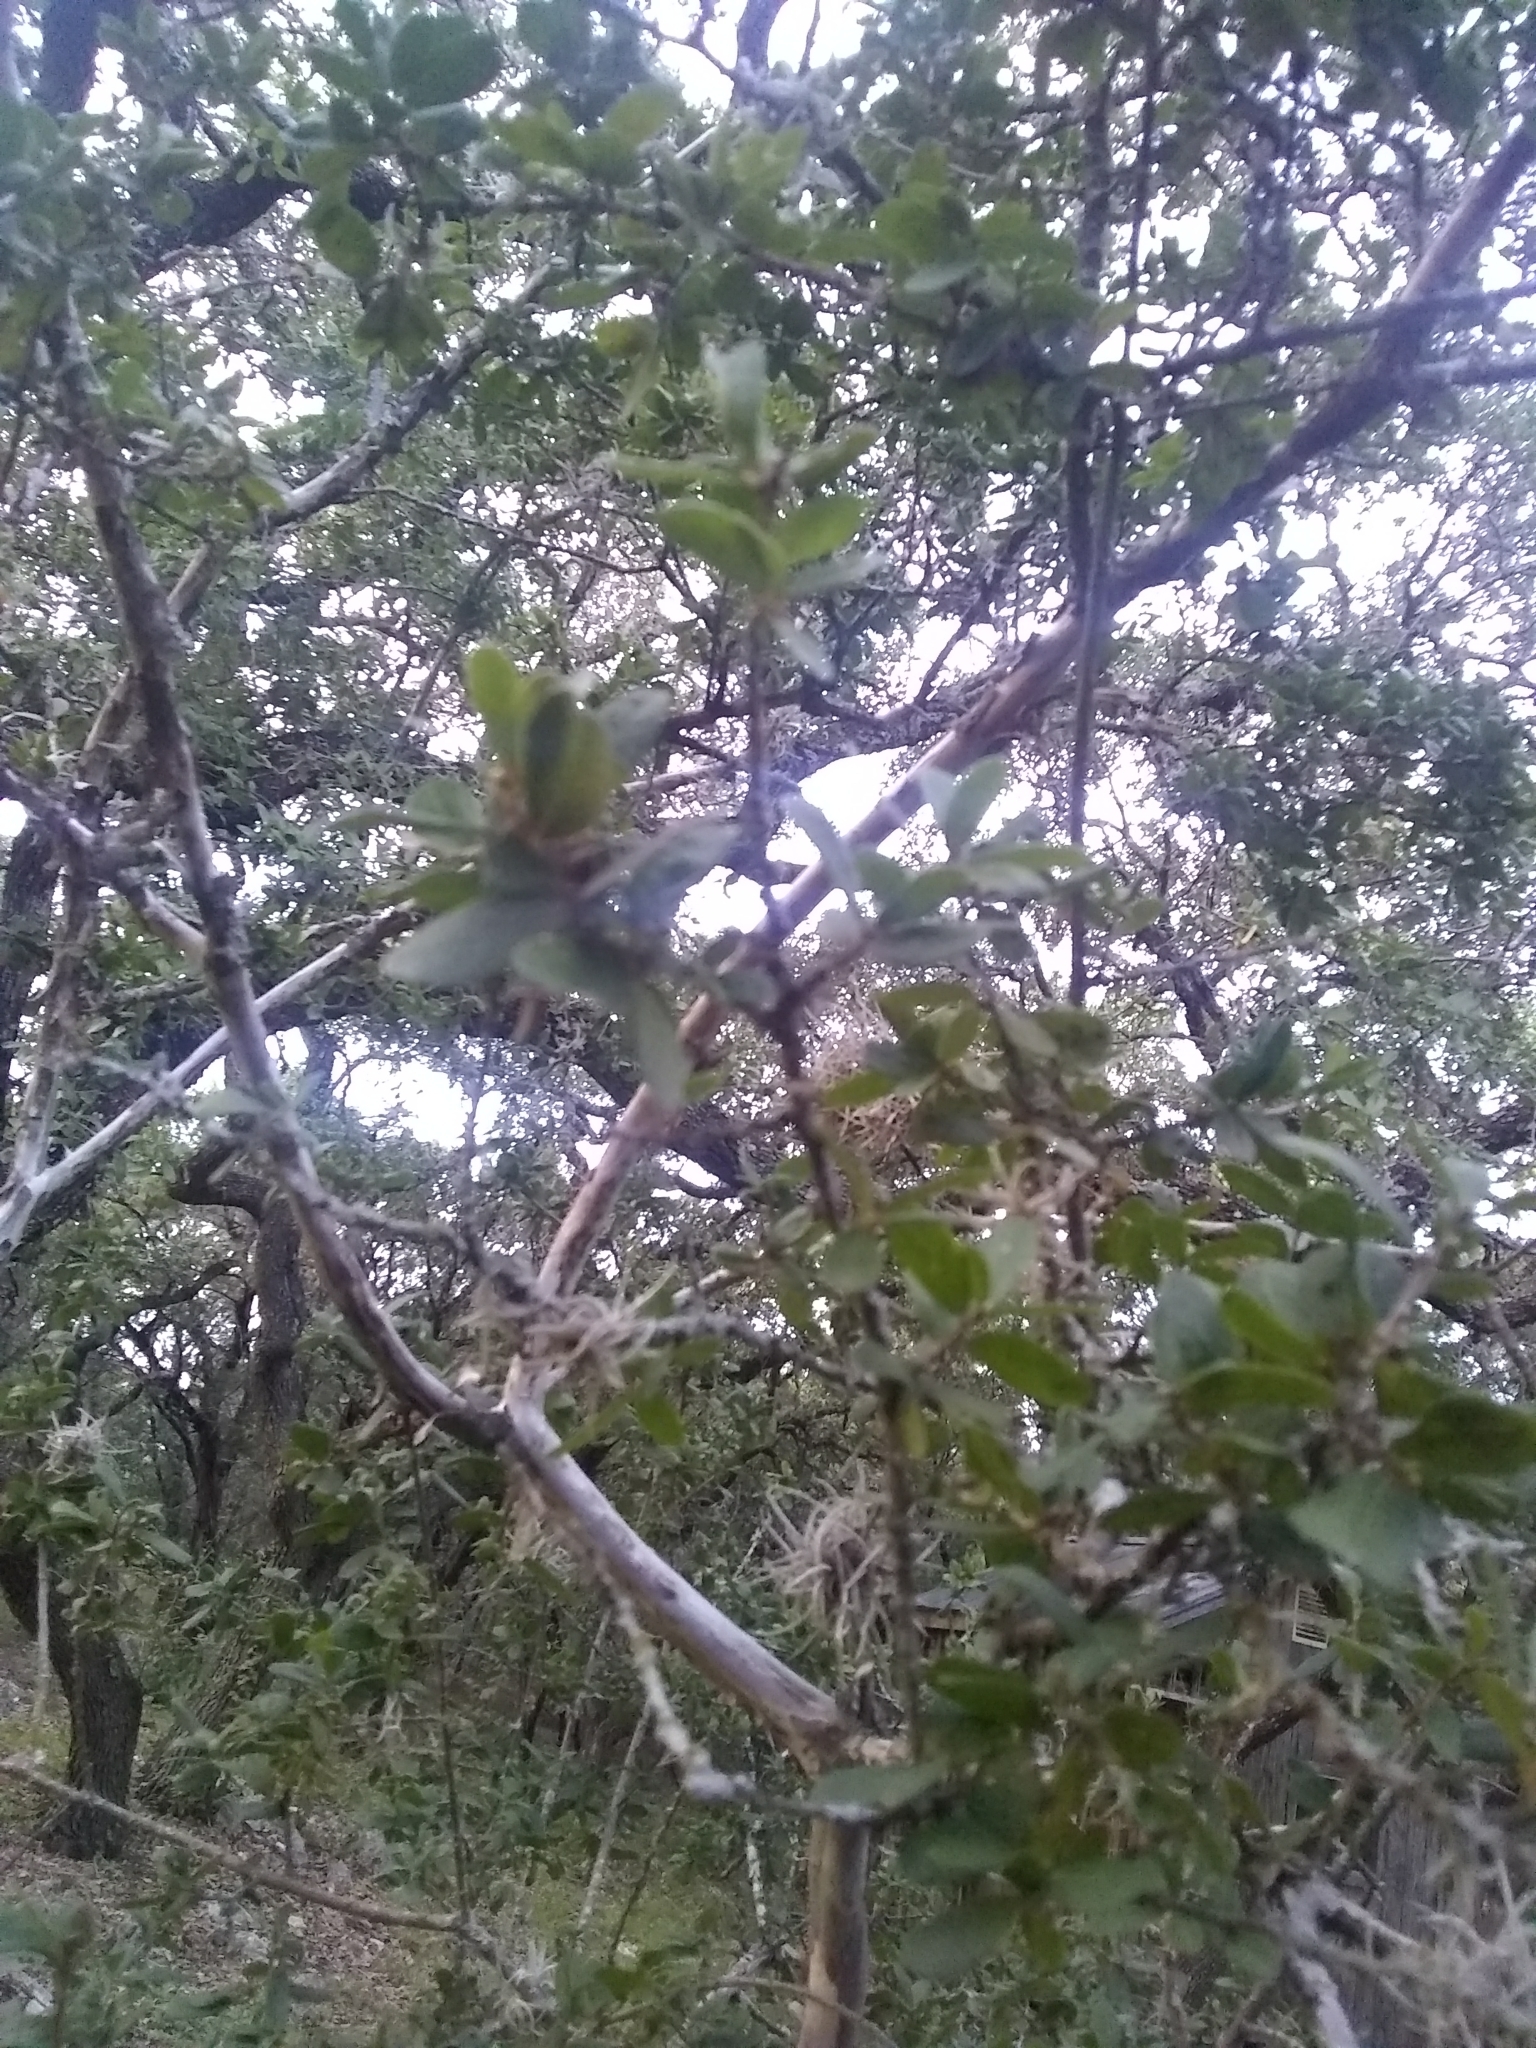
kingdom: Plantae
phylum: Tracheophyta
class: Magnoliopsida
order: Ericales
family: Ebenaceae
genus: Diospyros
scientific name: Diospyros texana
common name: Texas persimmon
